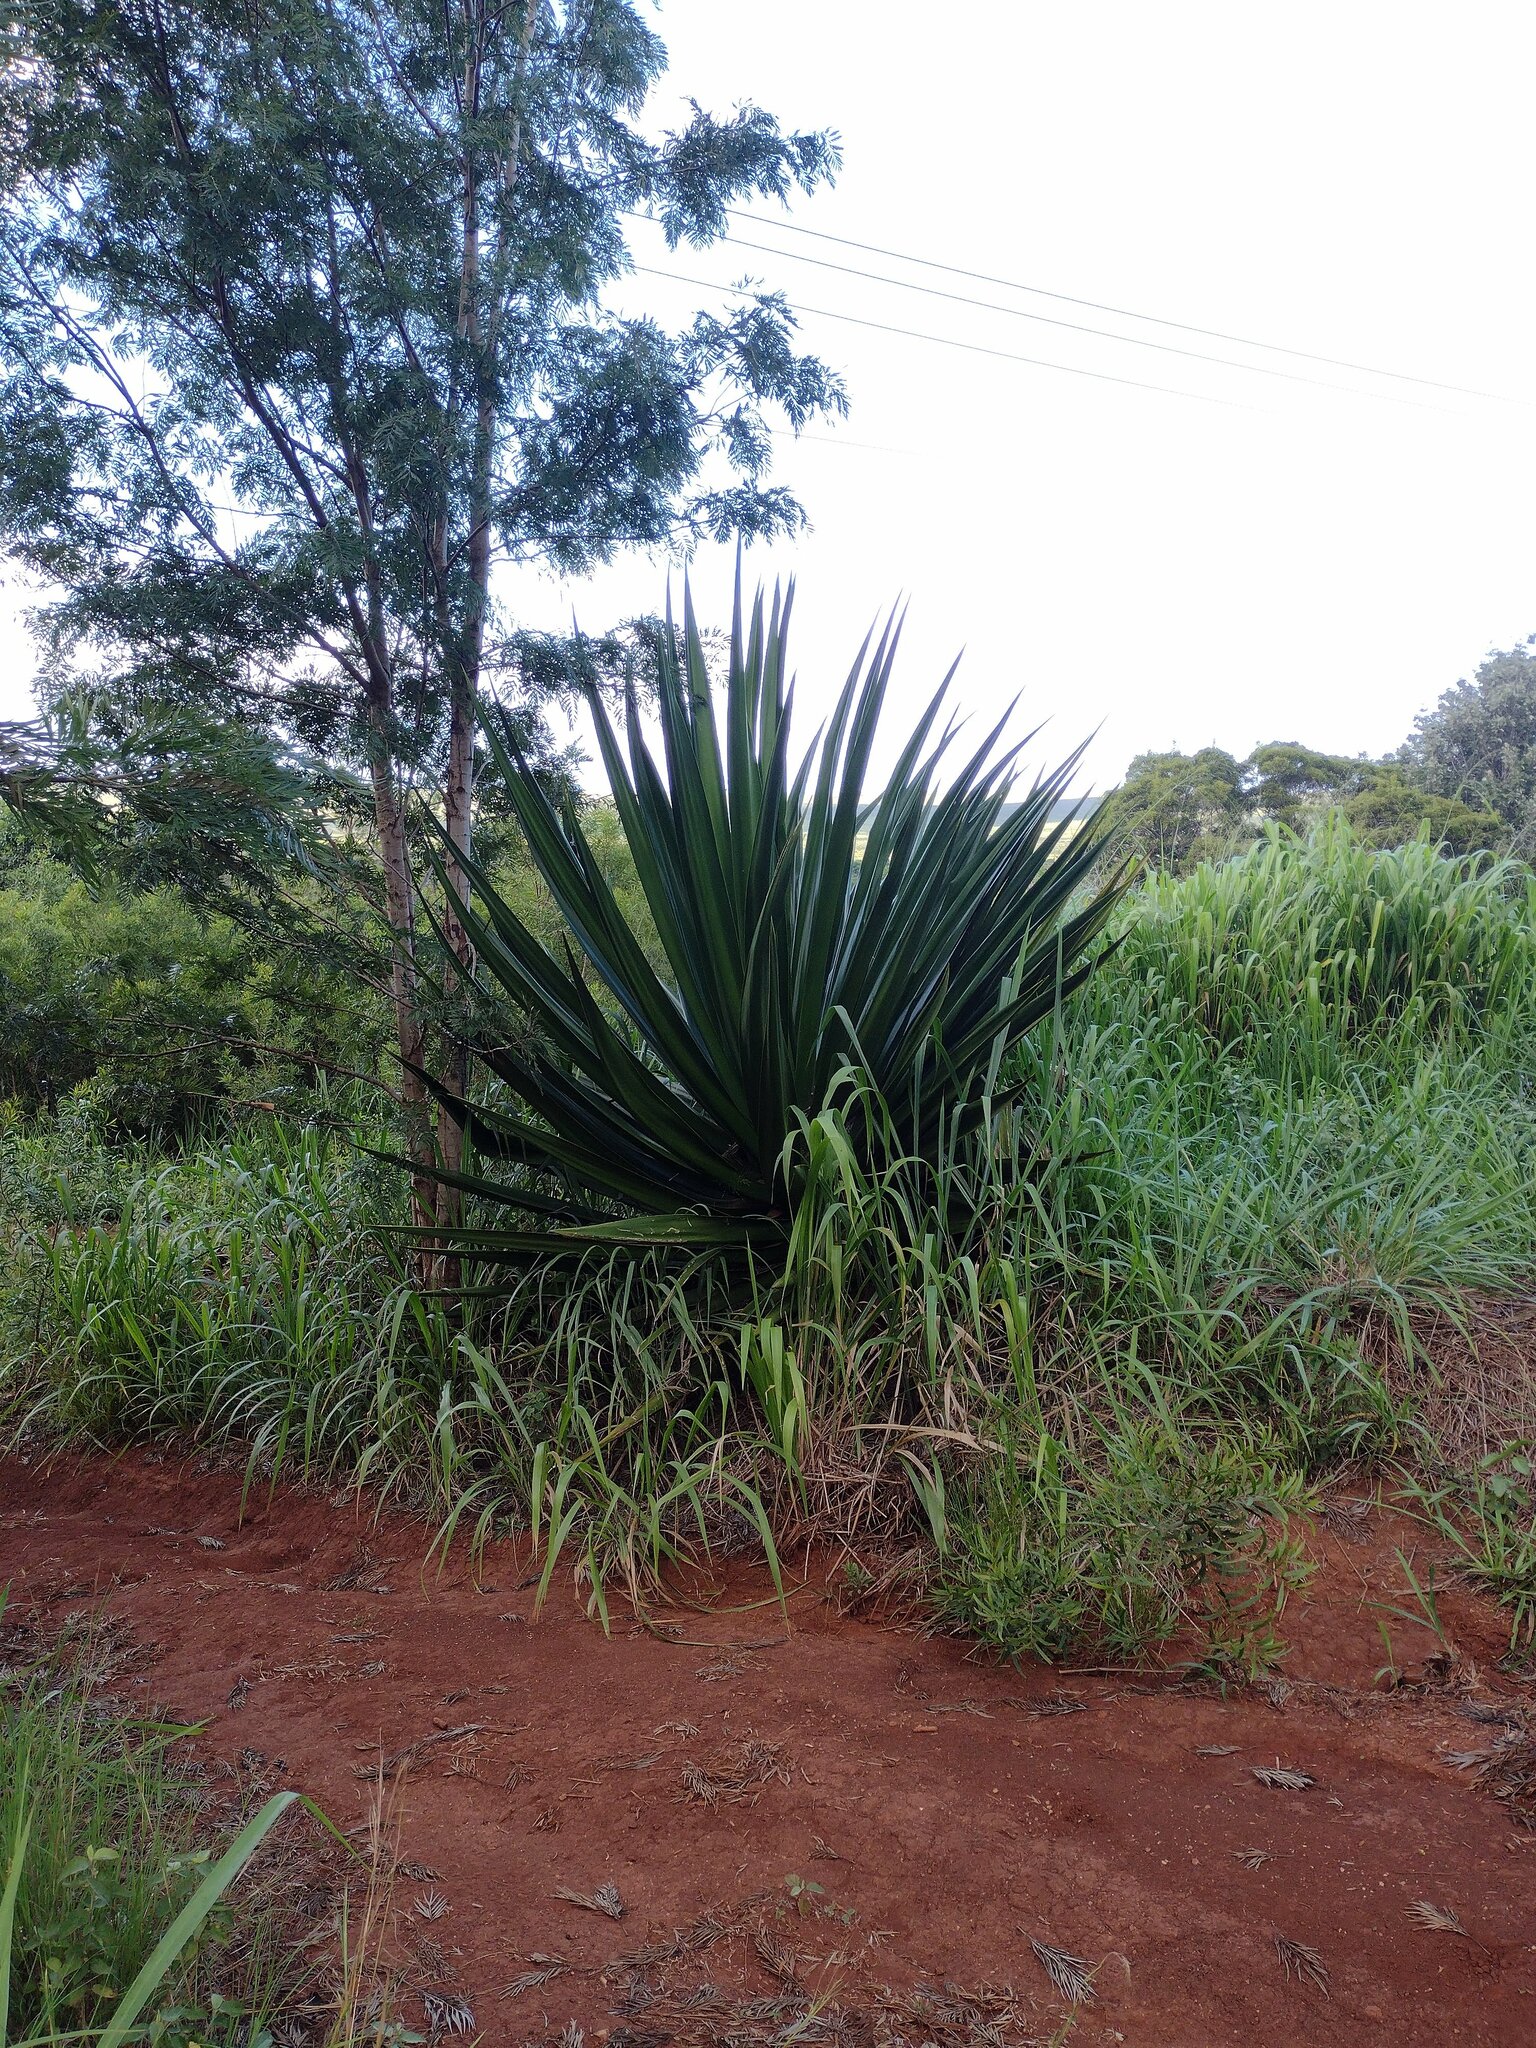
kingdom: Plantae
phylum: Tracheophyta
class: Liliopsida
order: Asparagales
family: Asparagaceae
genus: Furcraea
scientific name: Furcraea foetida
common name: Mauritius hemp
